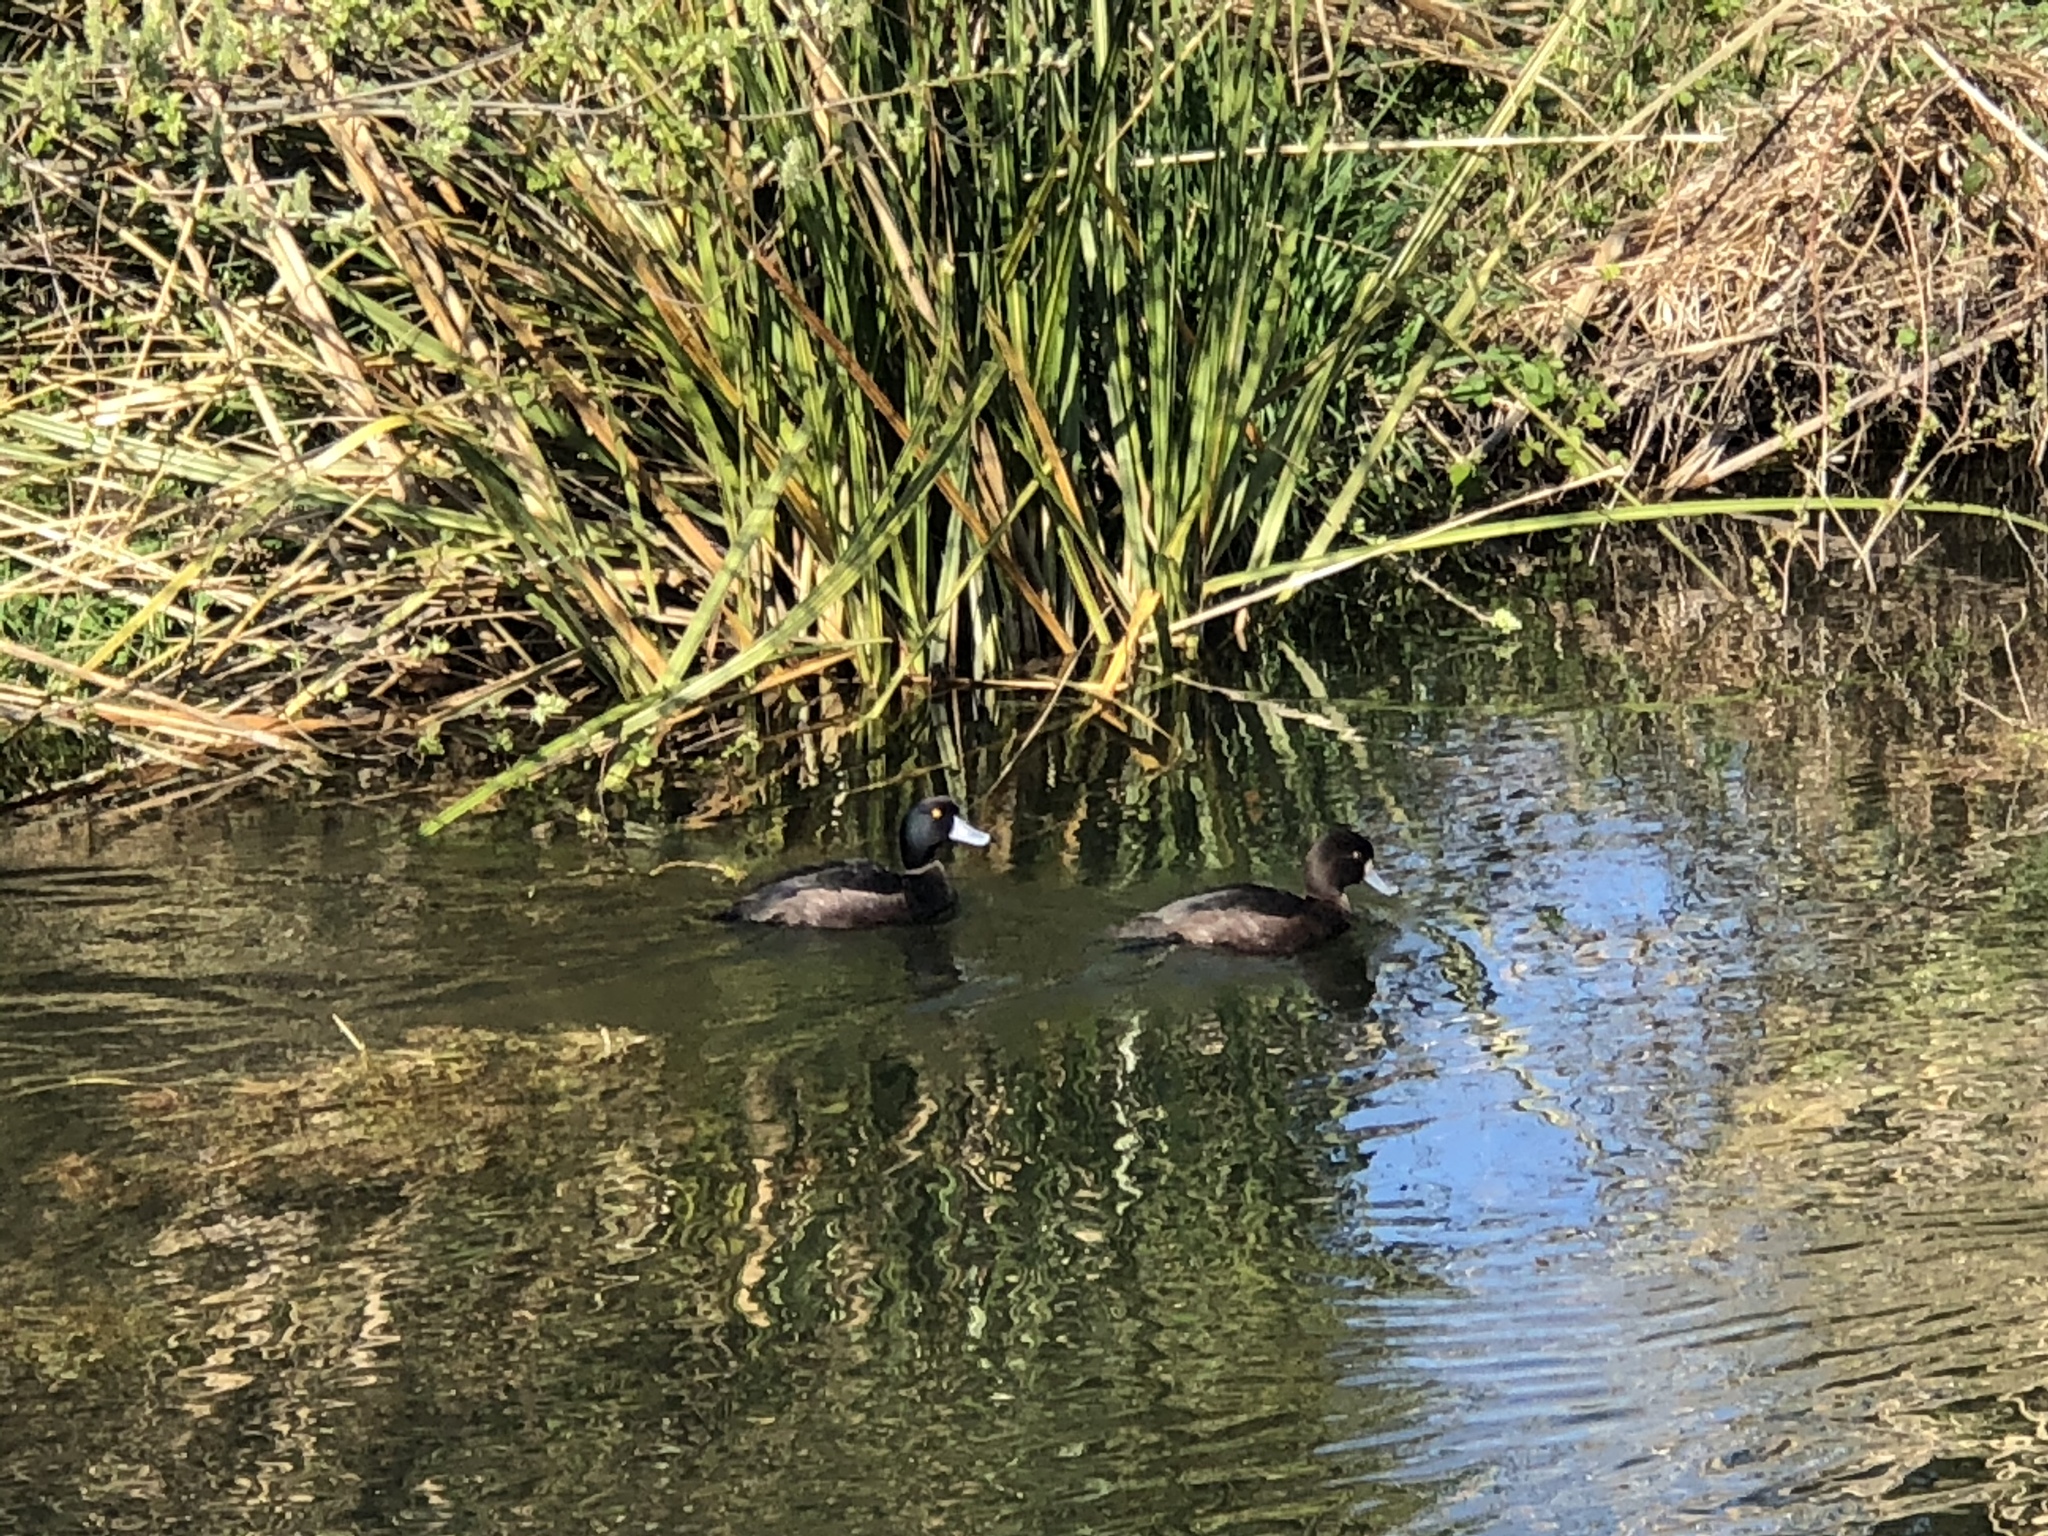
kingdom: Animalia
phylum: Chordata
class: Aves
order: Anseriformes
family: Anatidae
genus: Aythya
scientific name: Aythya novaeseelandiae
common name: New zealand scaup
